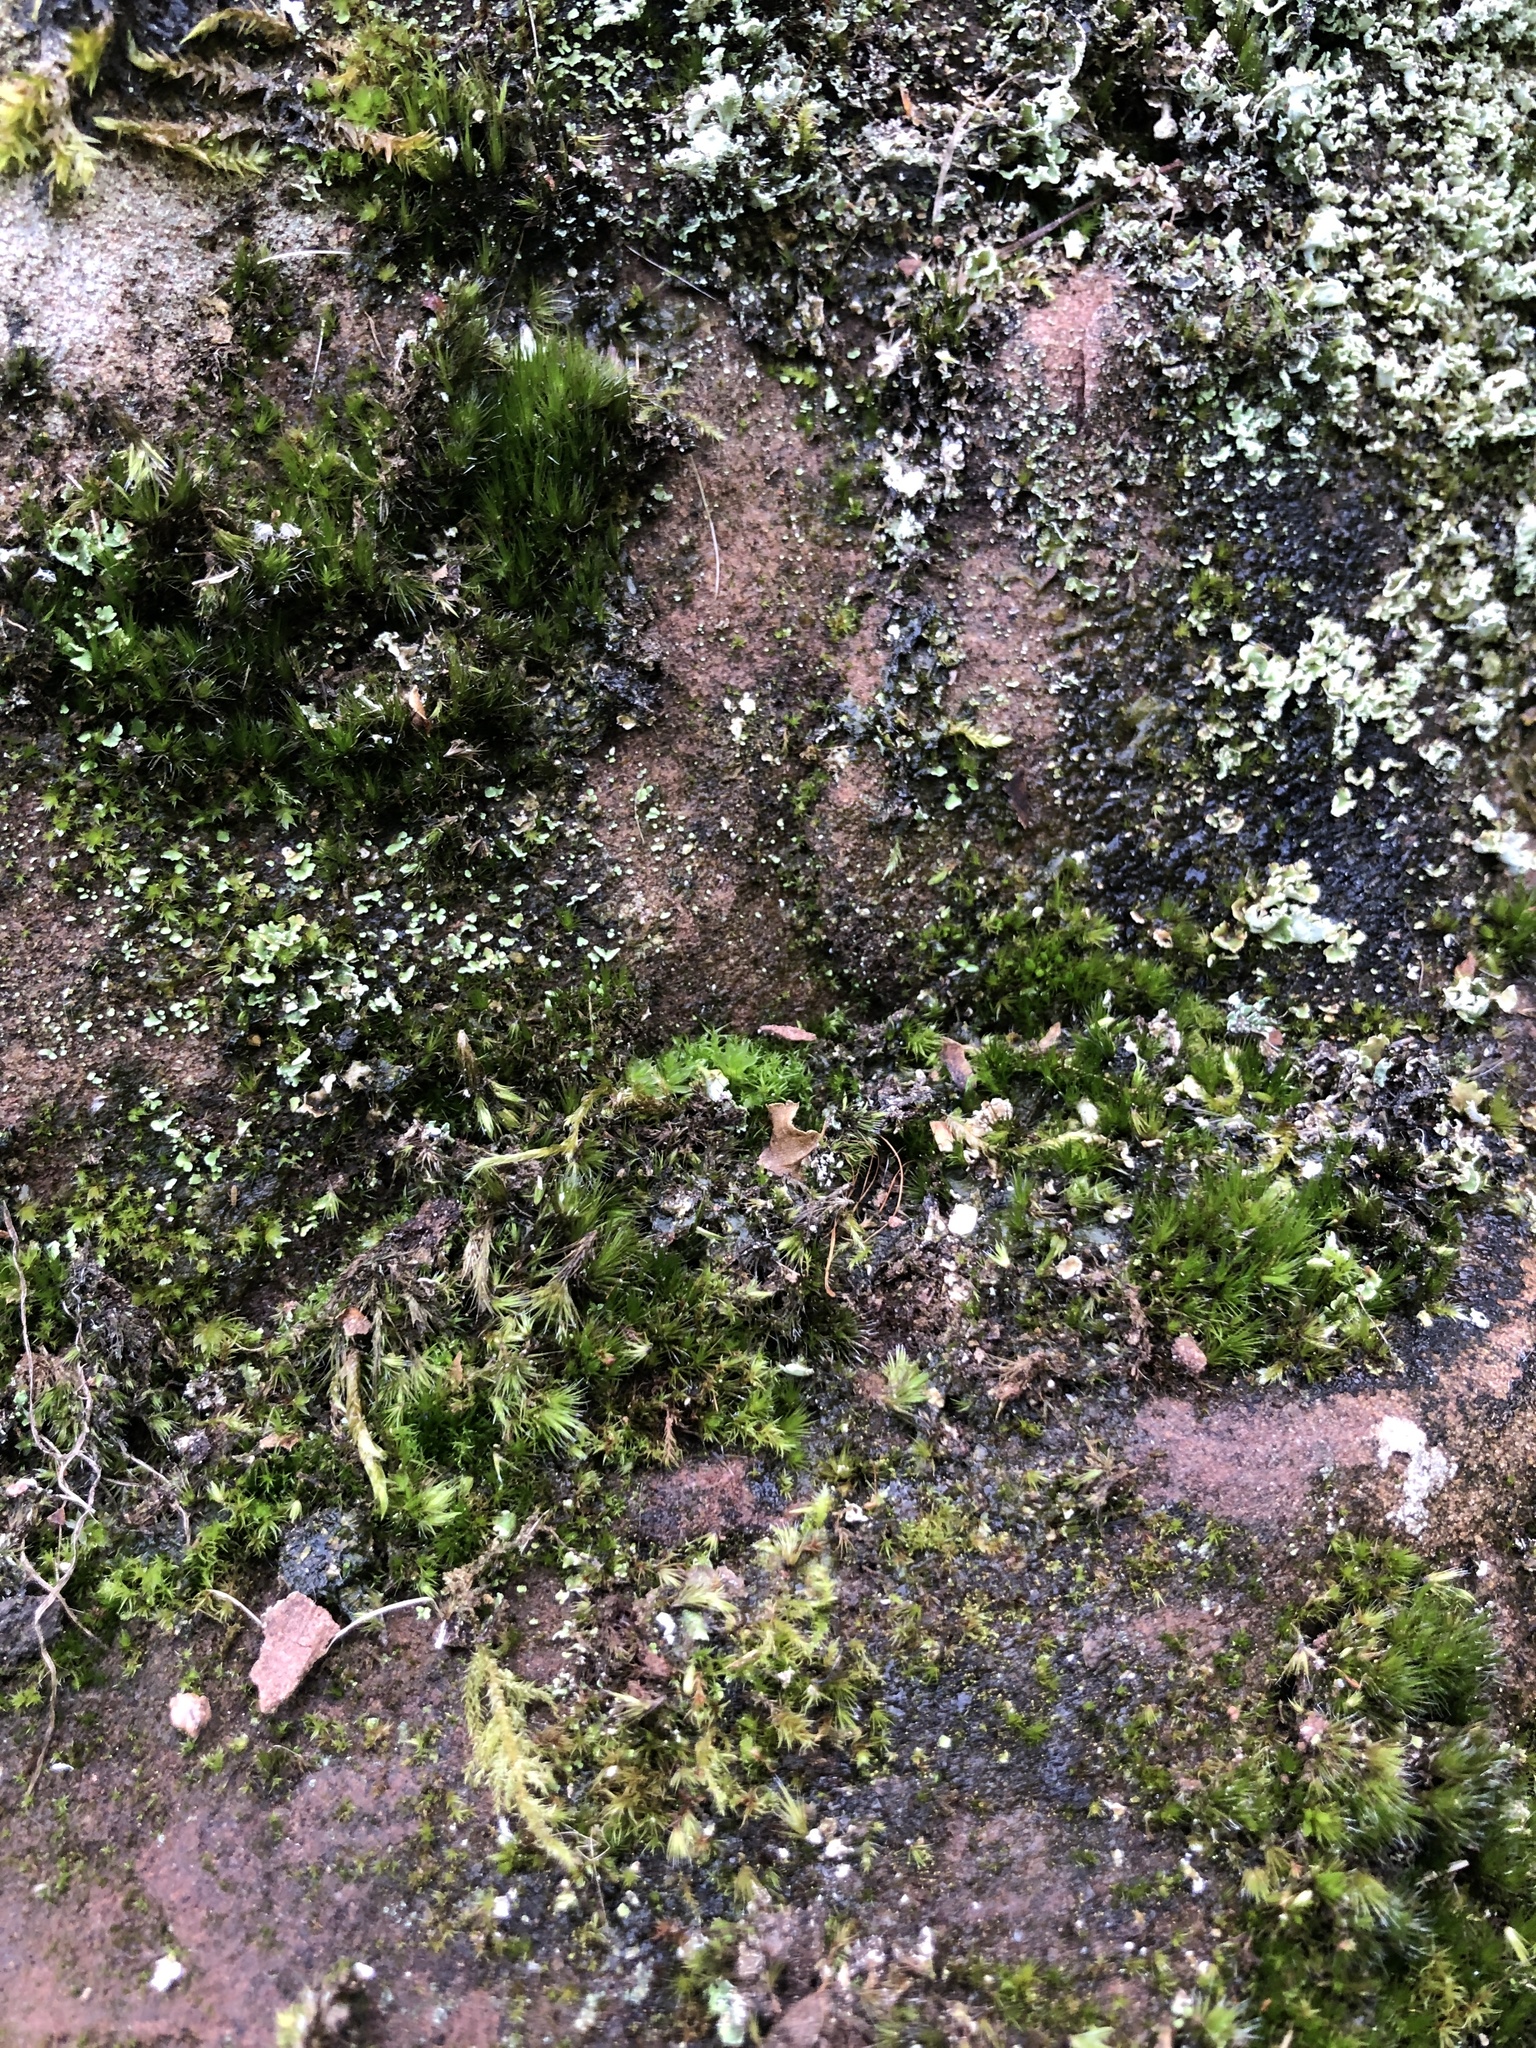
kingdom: Plantae
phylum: Bryophyta
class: Bryopsida
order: Bryales
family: Bryaceae
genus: Rosulabryum
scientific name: Rosulabryum capillare
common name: Capillary thread-moss
